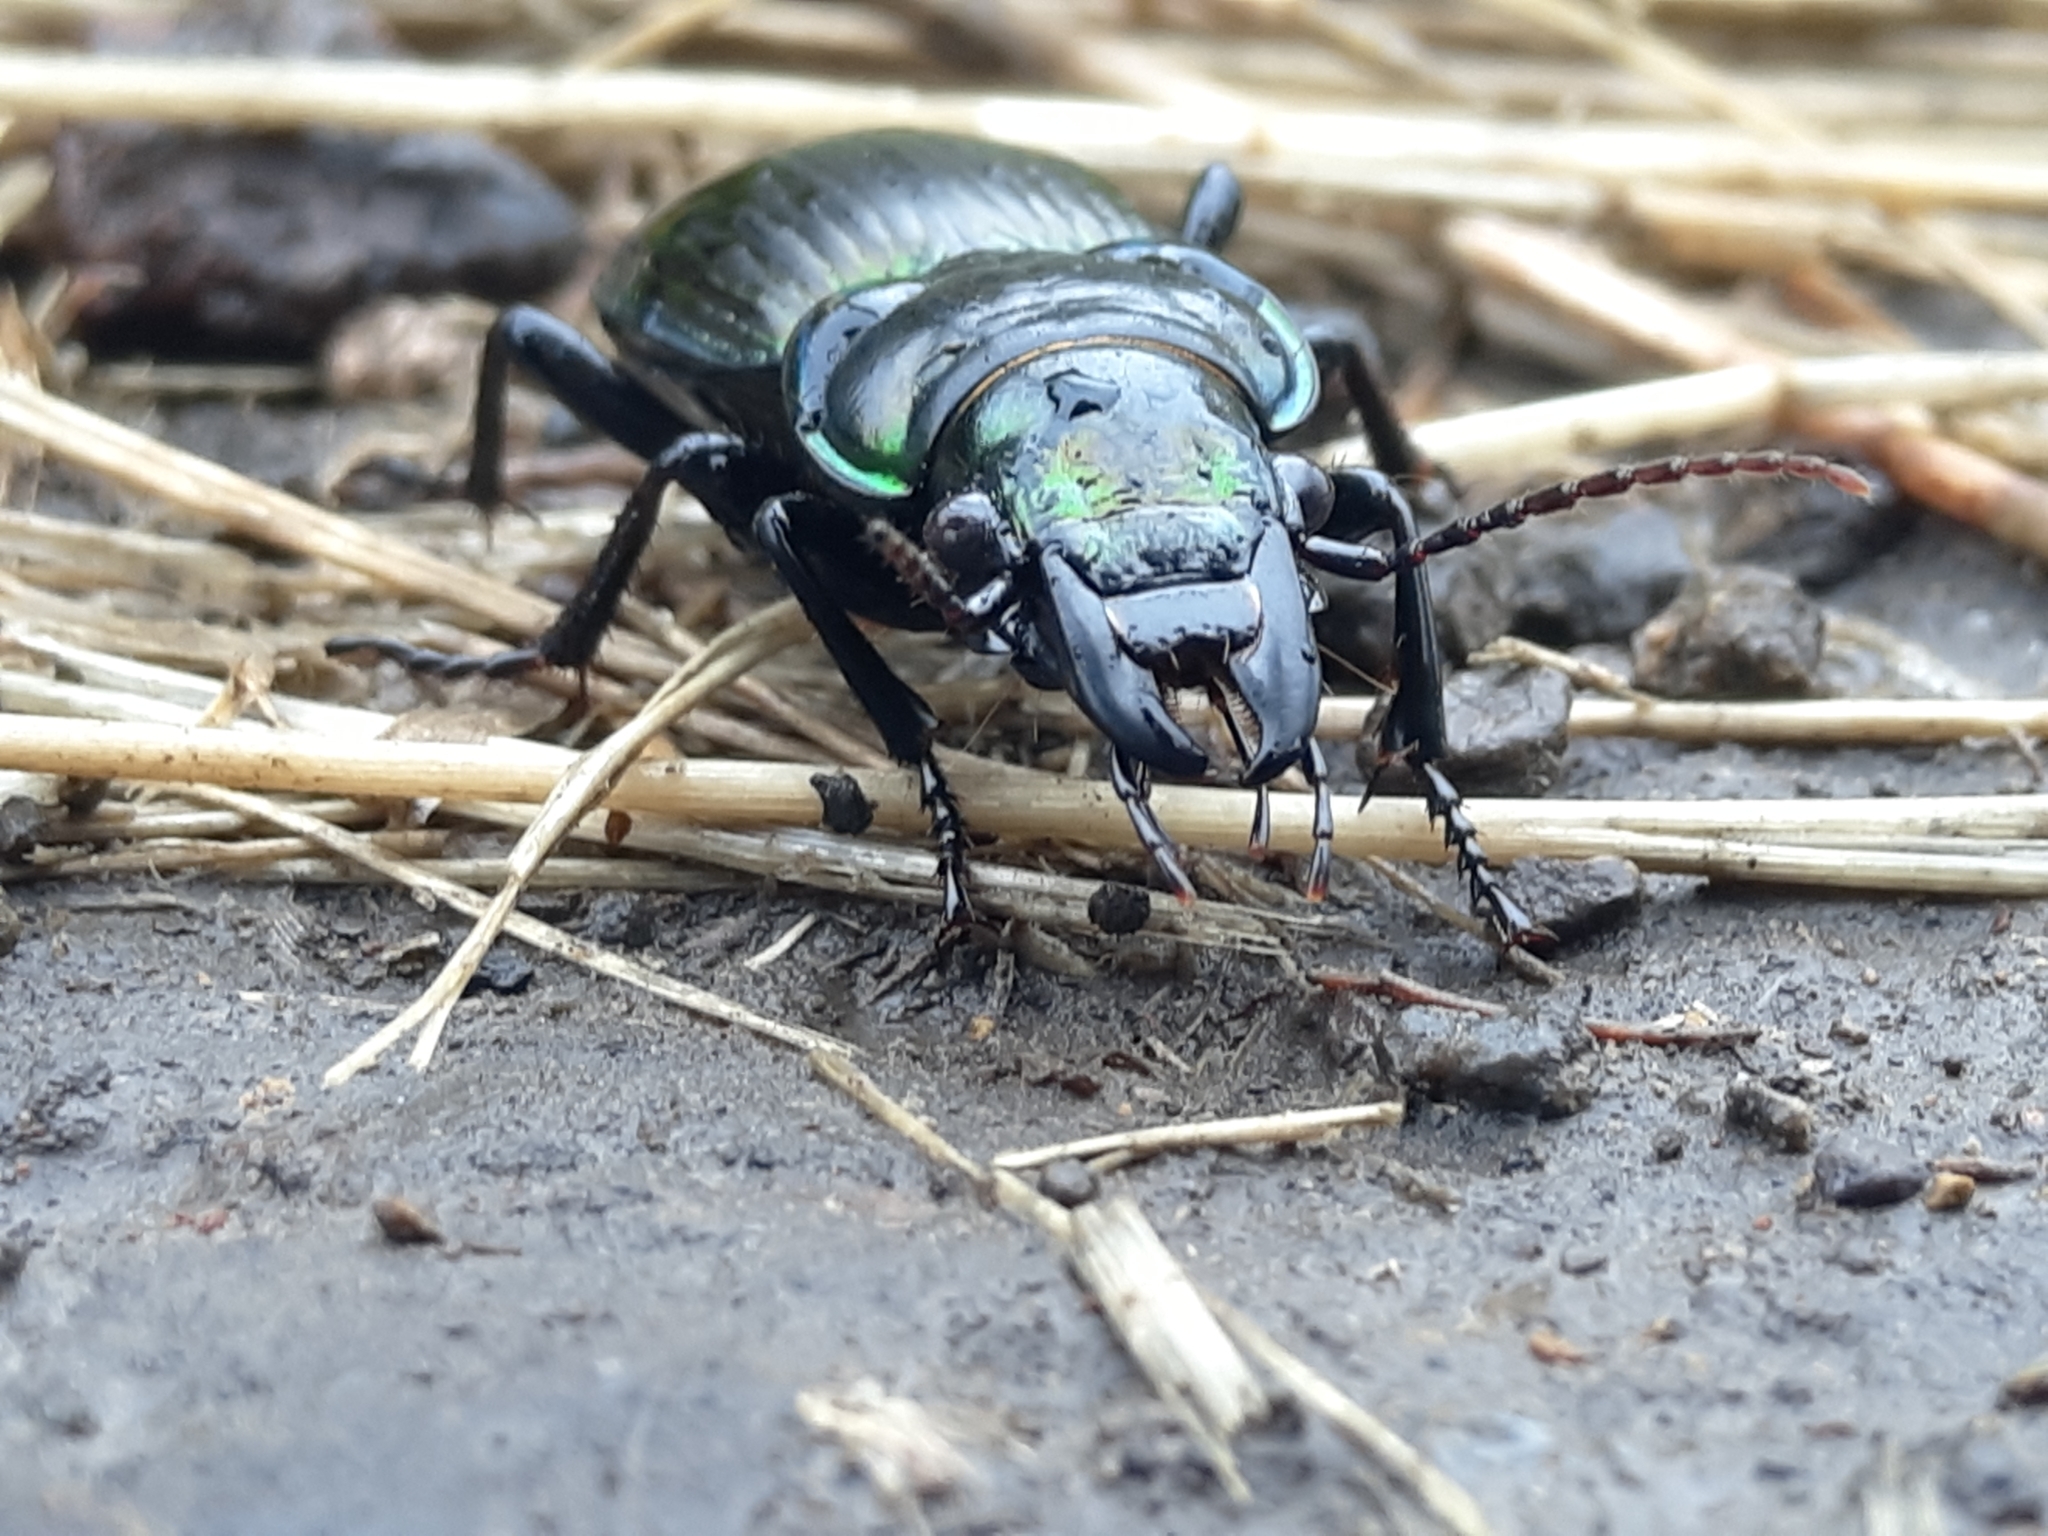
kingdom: Animalia
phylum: Arthropoda
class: Insecta
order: Coleoptera
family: Carabidae
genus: Megadromus
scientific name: Megadromus antarcticus
